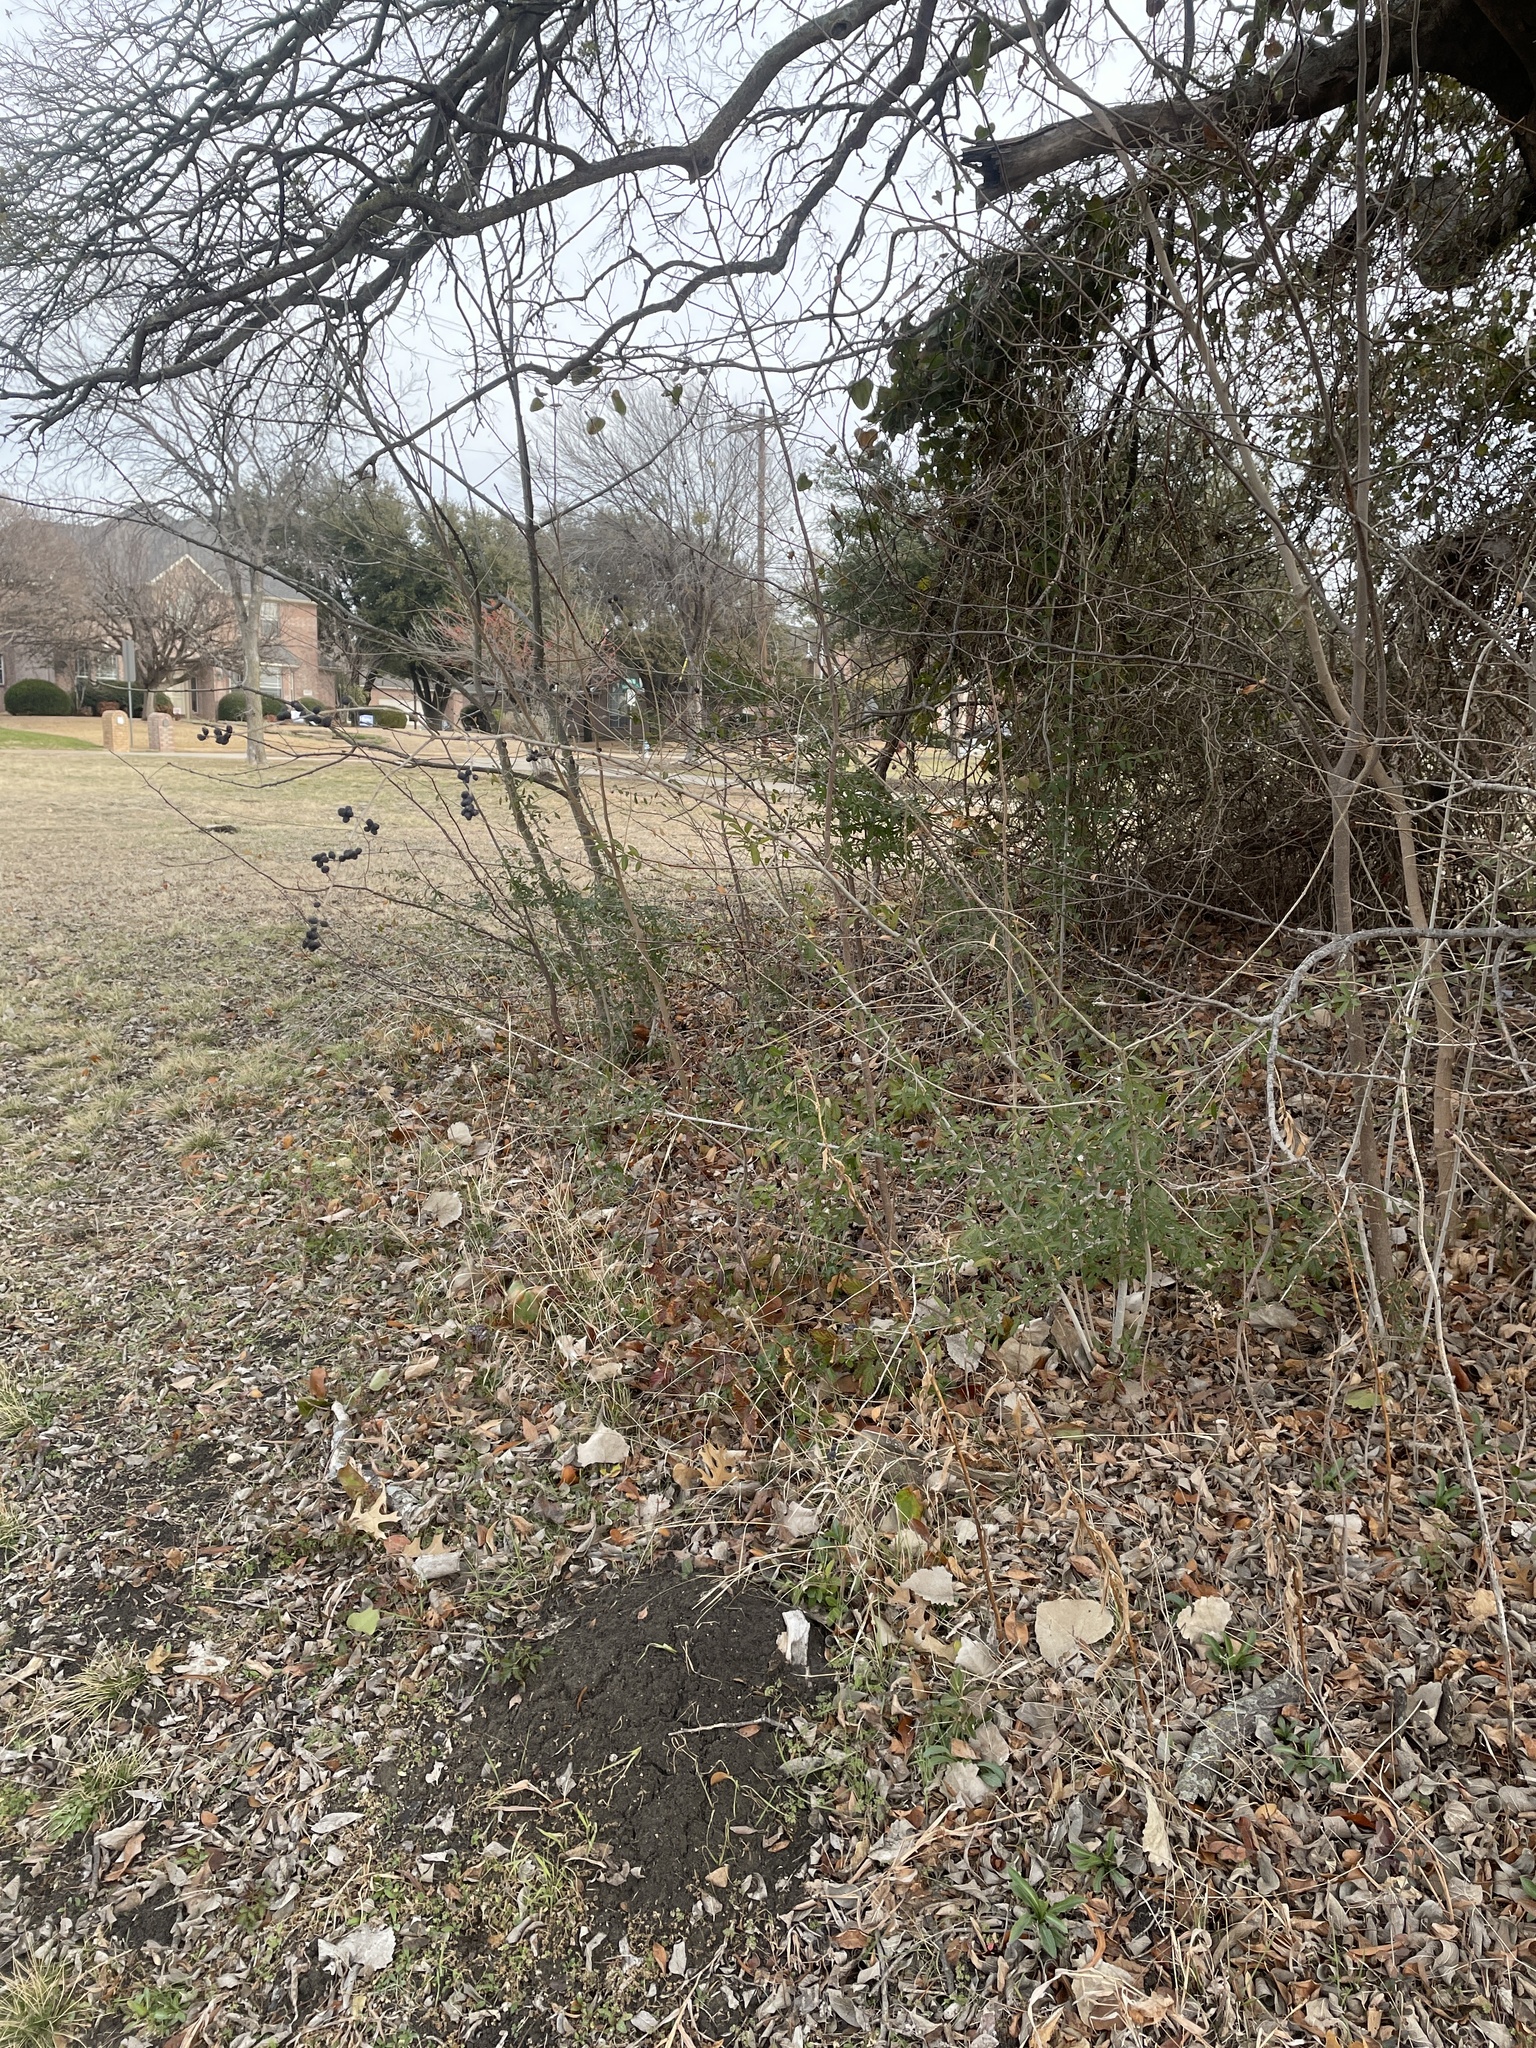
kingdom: Plantae
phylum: Tracheophyta
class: Magnoliopsida
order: Lamiales
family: Oleaceae
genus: Ligustrum
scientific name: Ligustrum quihoui
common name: Waxyleaf privet
